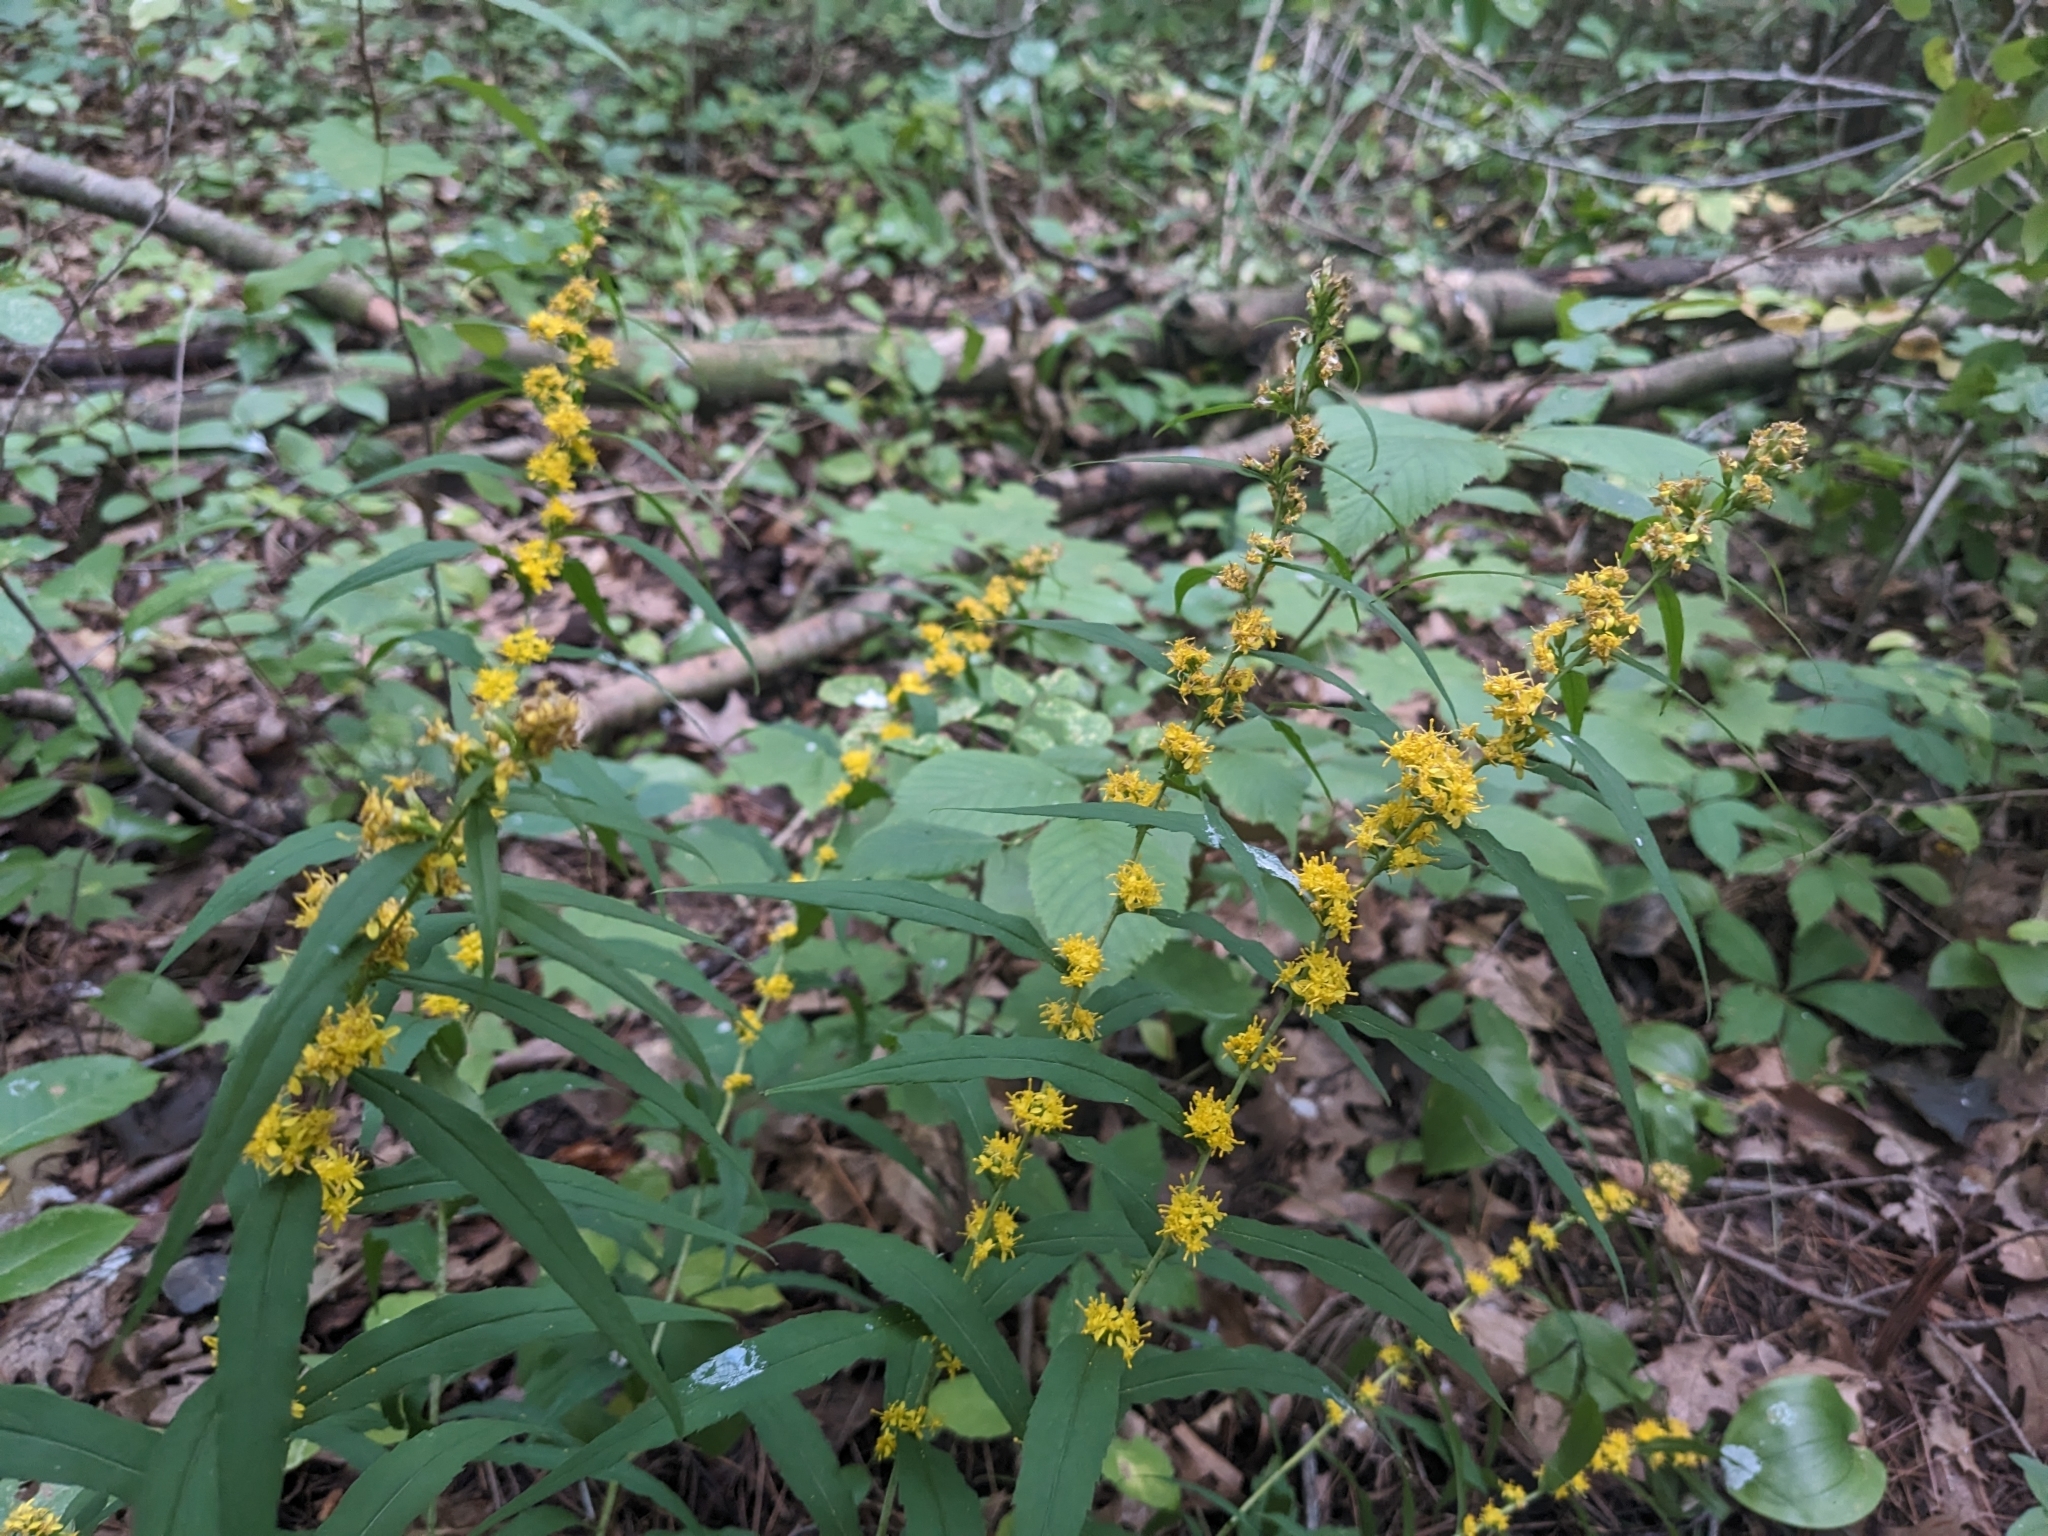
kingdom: Plantae
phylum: Tracheophyta
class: Magnoliopsida
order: Asterales
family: Asteraceae
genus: Solidago
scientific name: Solidago caesia
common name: Woodland goldenrod
